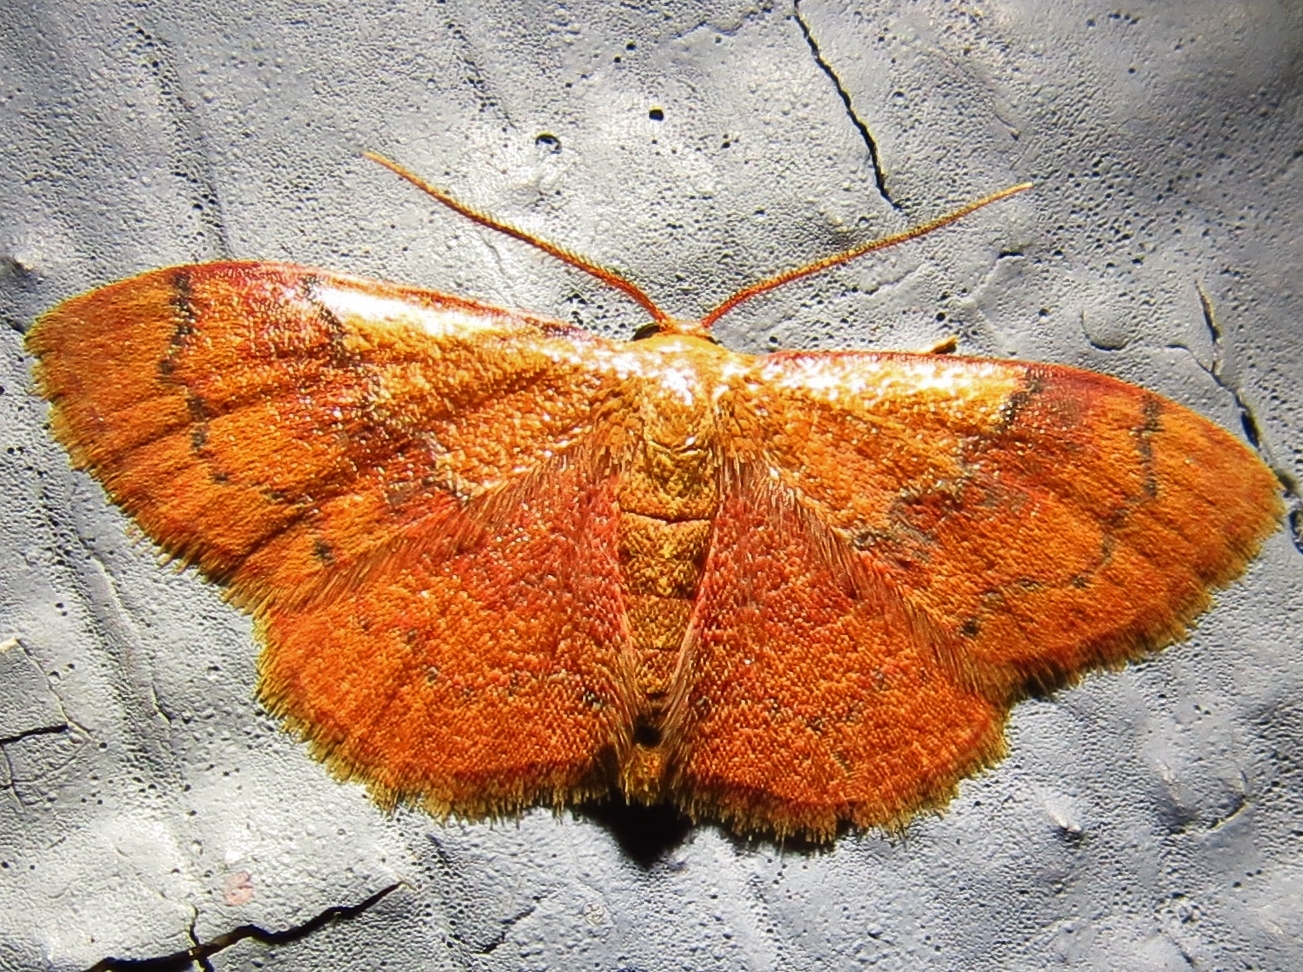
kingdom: Animalia
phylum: Arthropoda
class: Insecta
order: Lepidoptera
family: Geometridae
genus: Leptostales
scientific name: Leptostales ferruminaria
